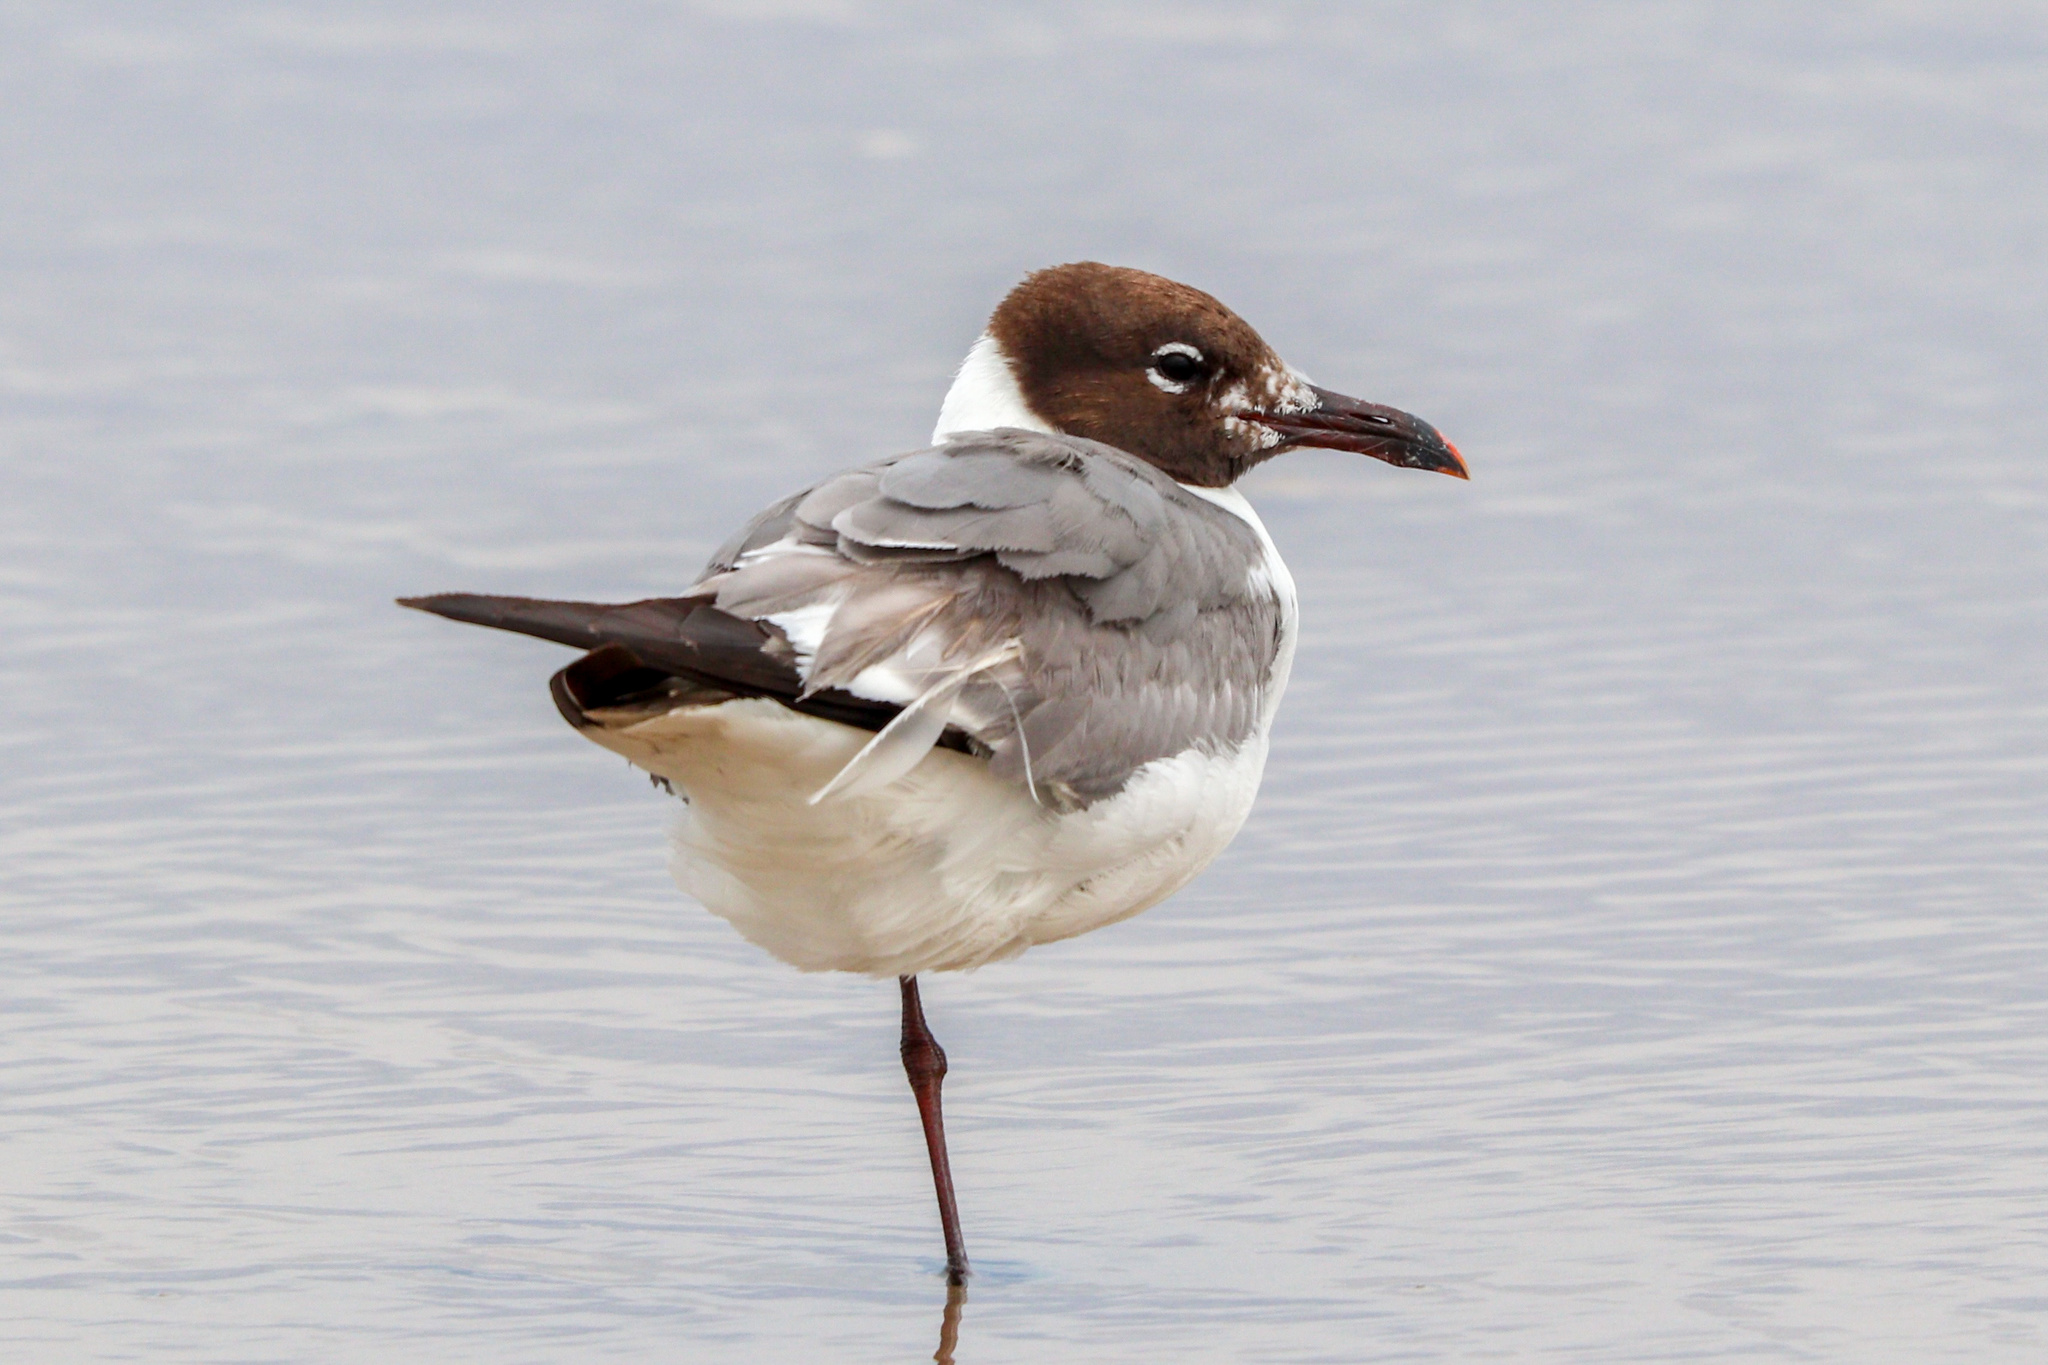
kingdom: Animalia
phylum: Chordata
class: Aves
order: Charadriiformes
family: Laridae
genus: Leucophaeus
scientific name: Leucophaeus atricilla
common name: Laughing gull
